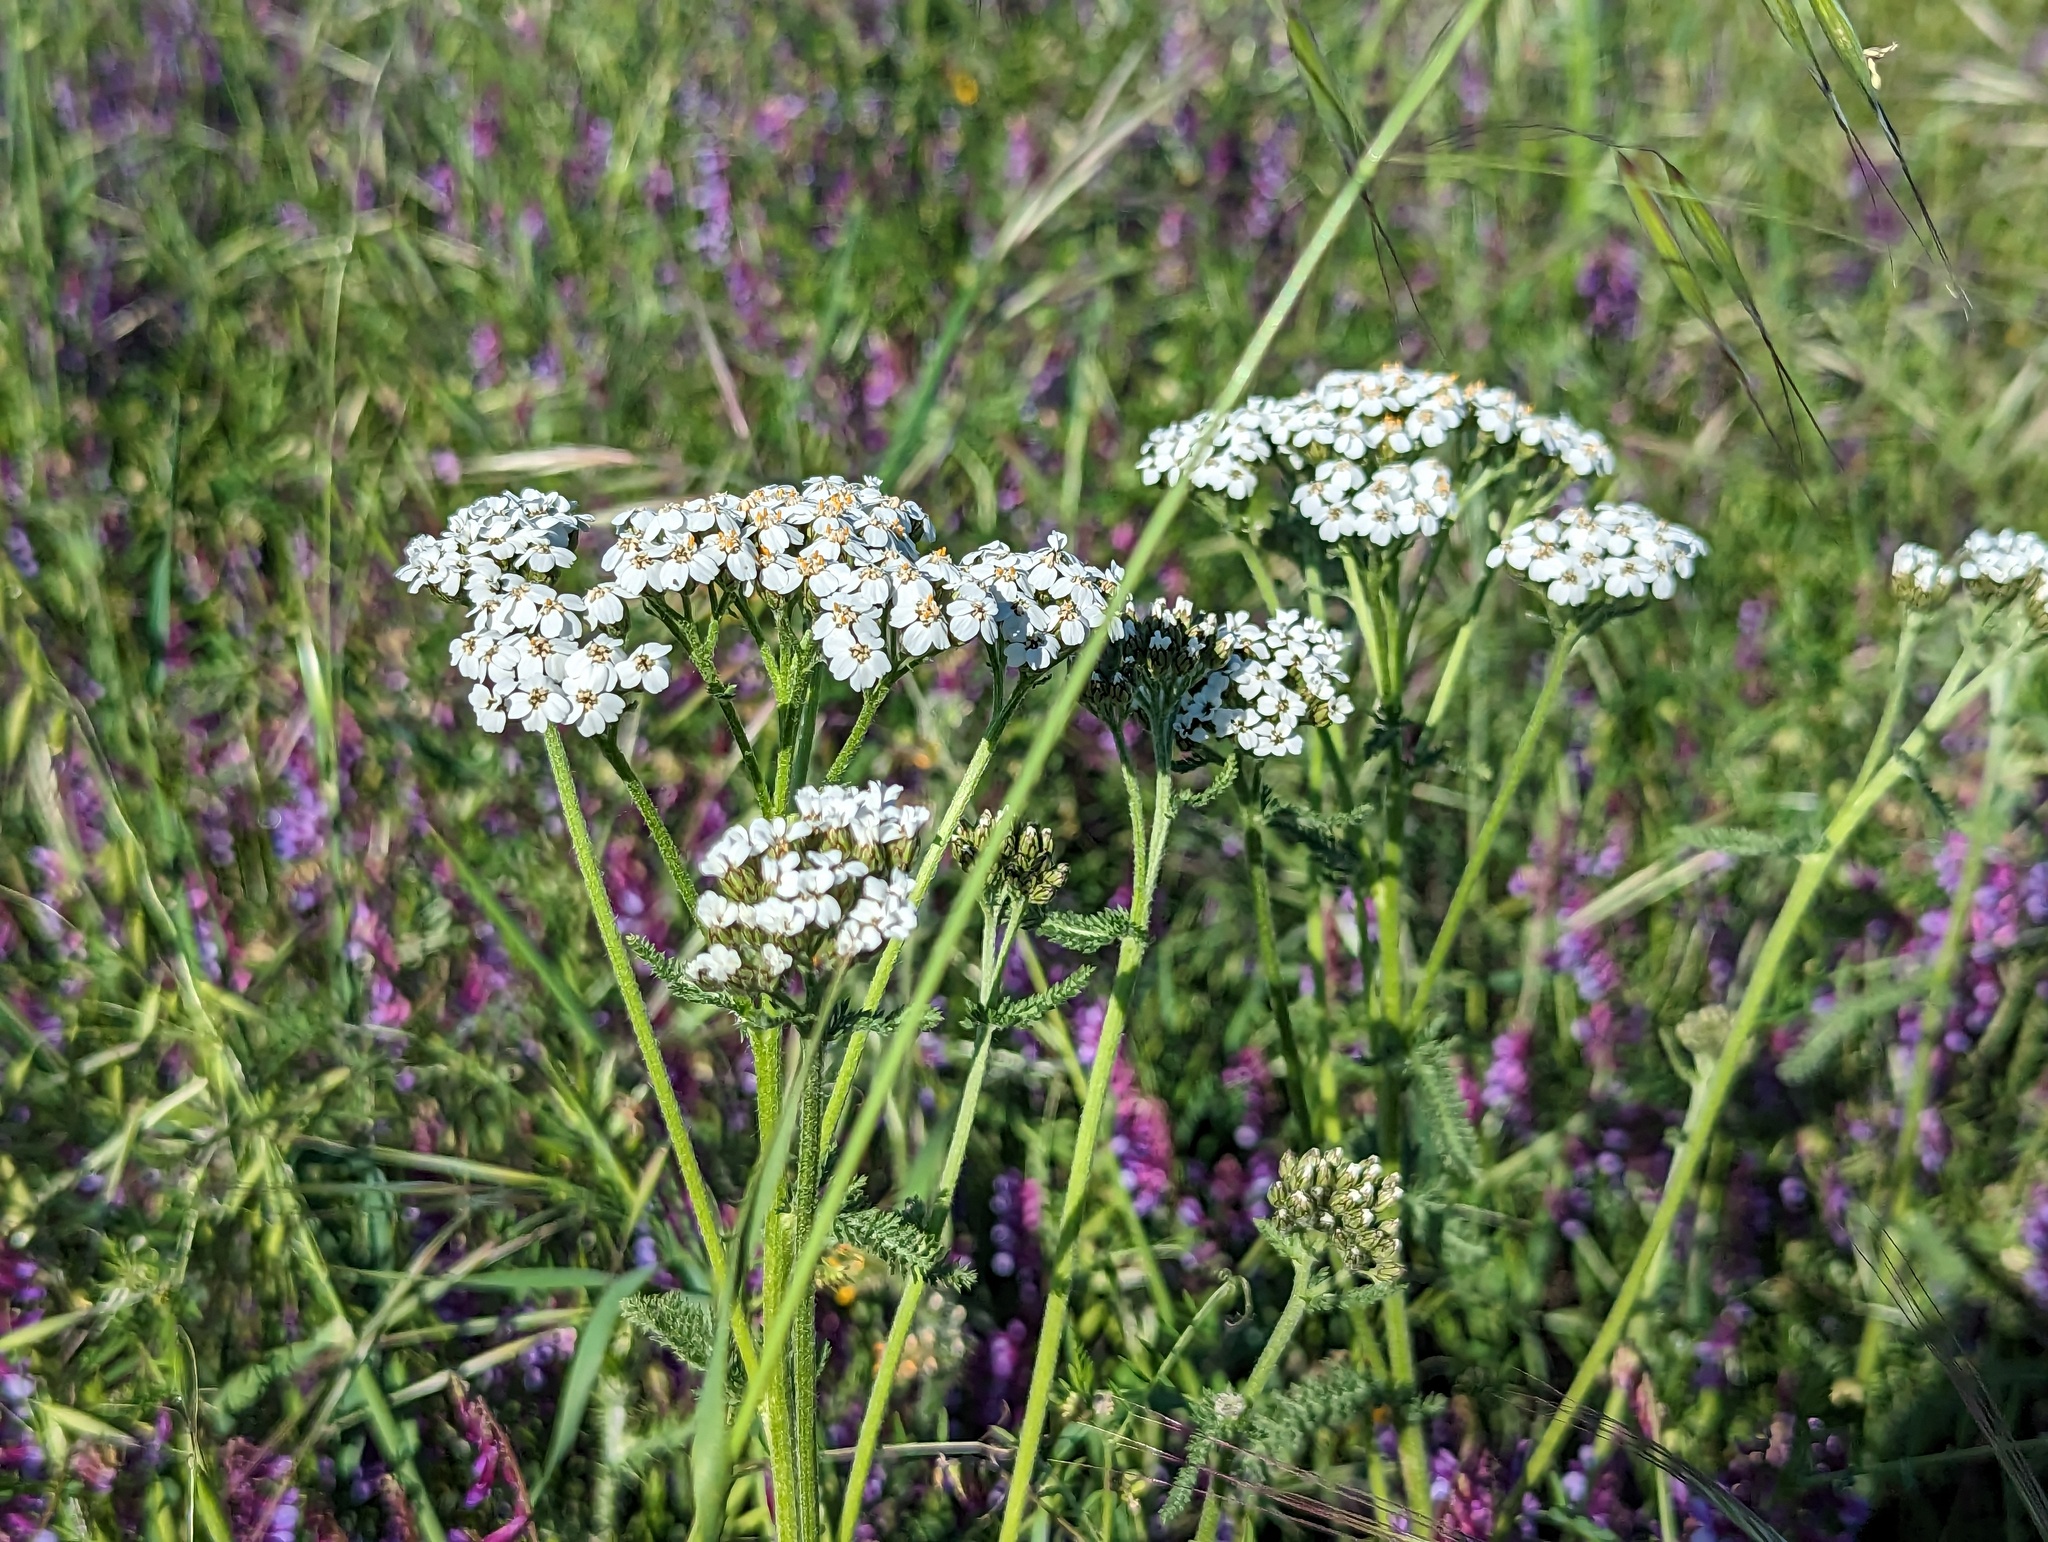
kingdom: Plantae
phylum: Tracheophyta
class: Magnoliopsida
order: Asterales
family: Asteraceae
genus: Achillea
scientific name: Achillea millefolium
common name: Yarrow
